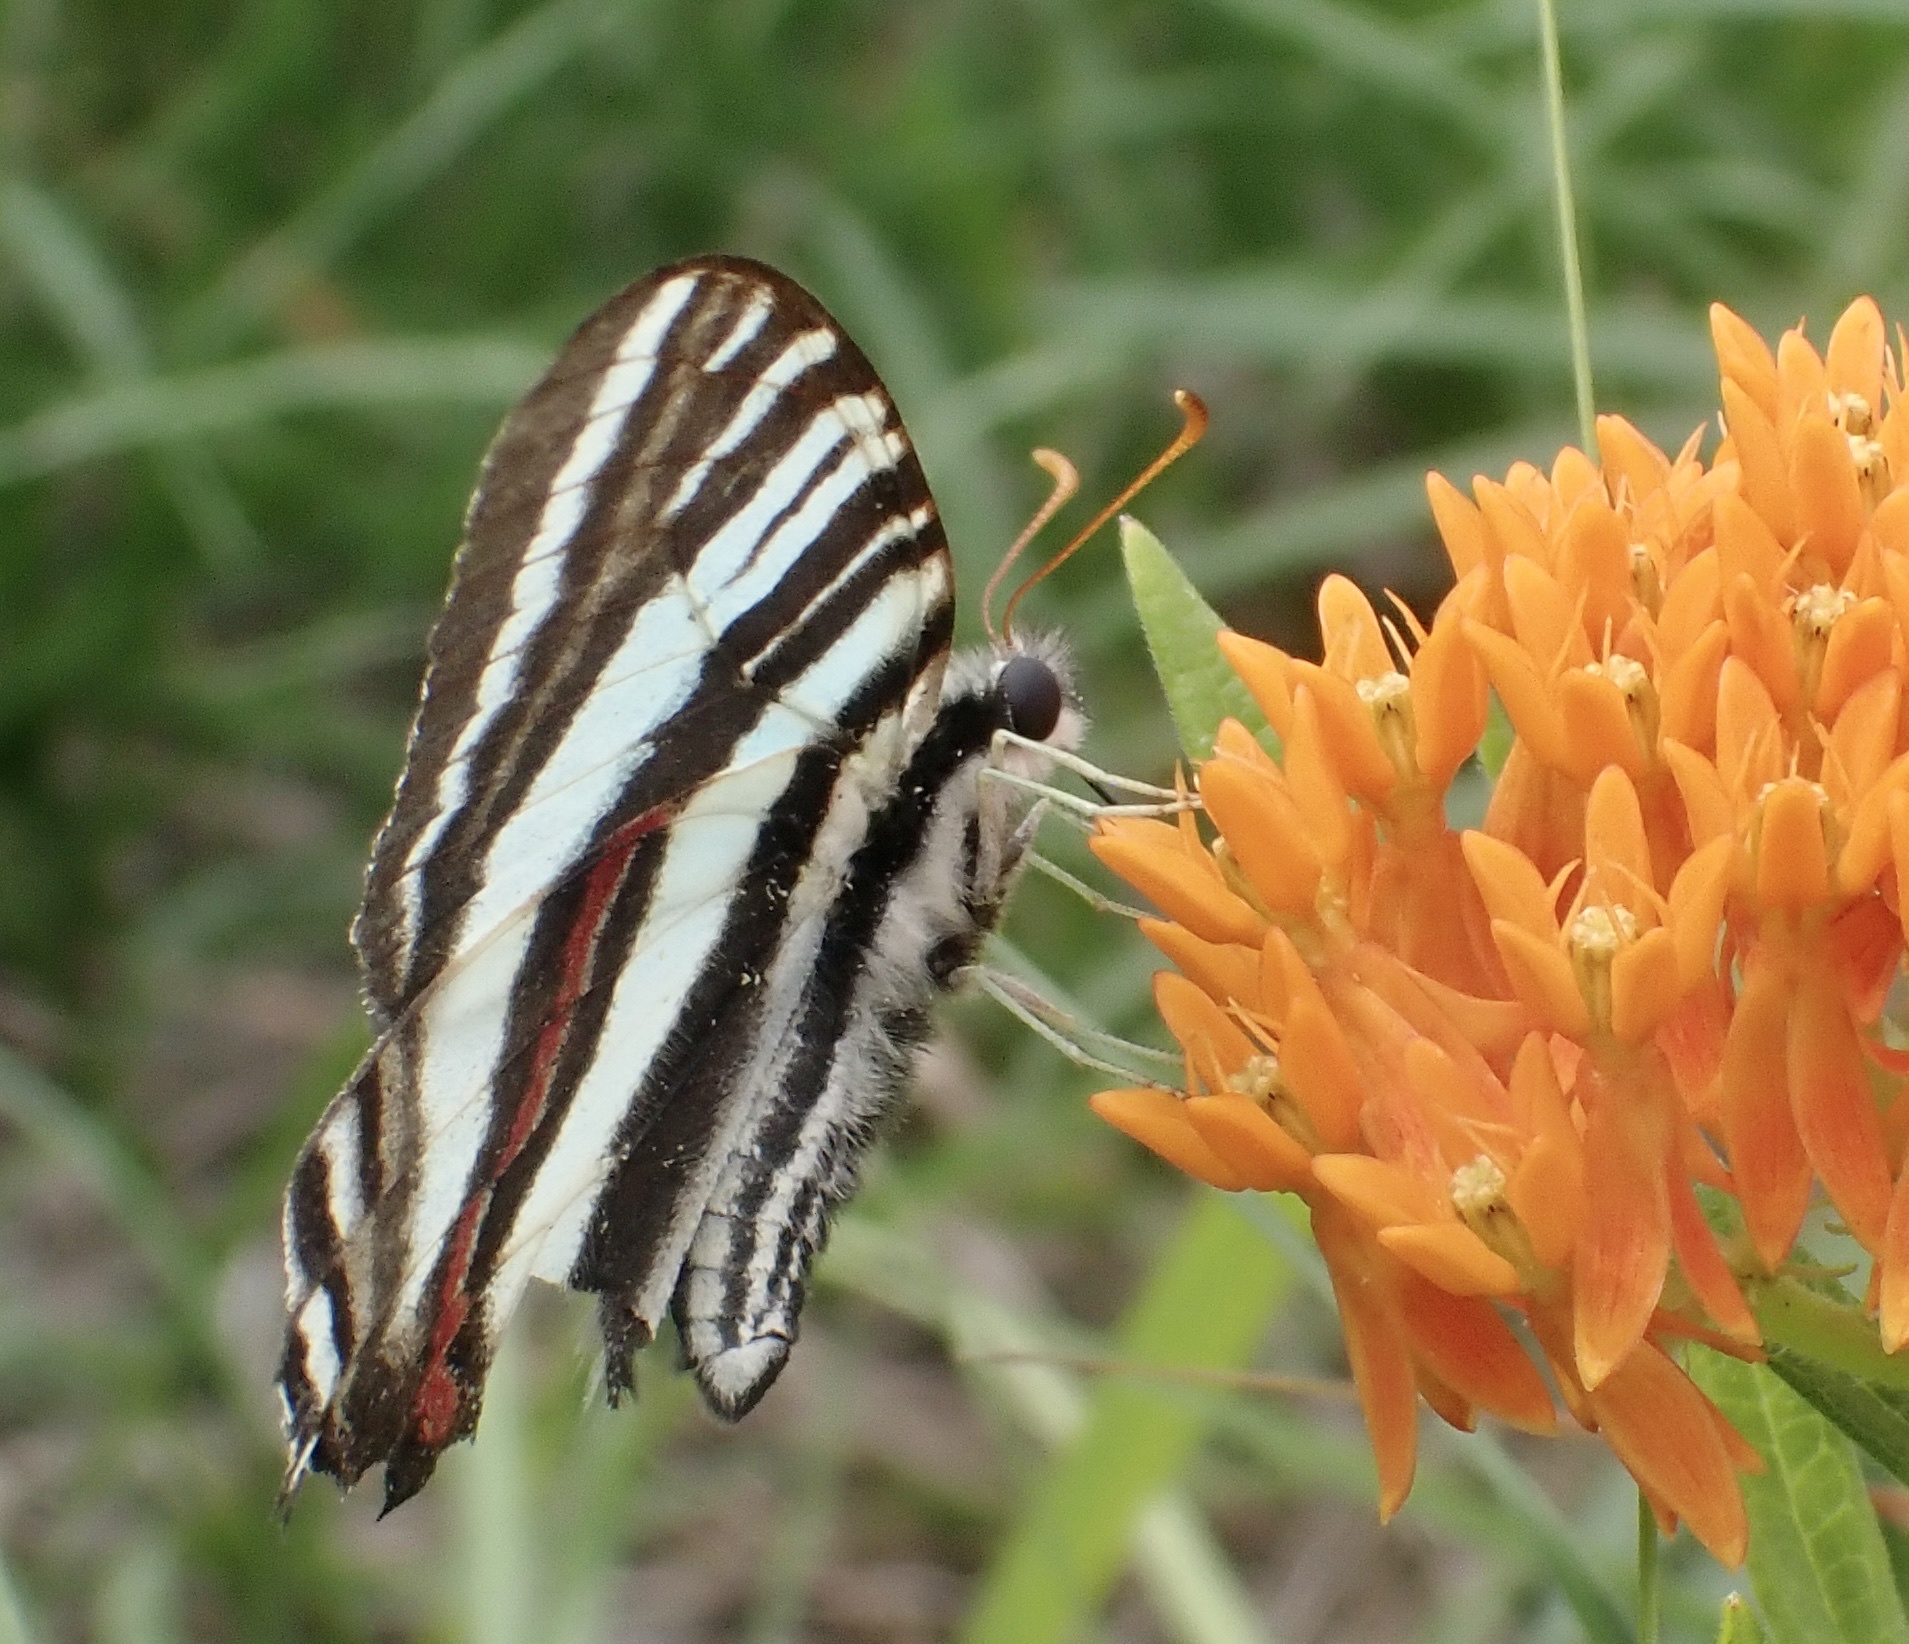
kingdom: Animalia
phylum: Arthropoda
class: Insecta
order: Lepidoptera
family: Papilionidae
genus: Protographium
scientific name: Protographium marcellus
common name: Zebra swallowtail
